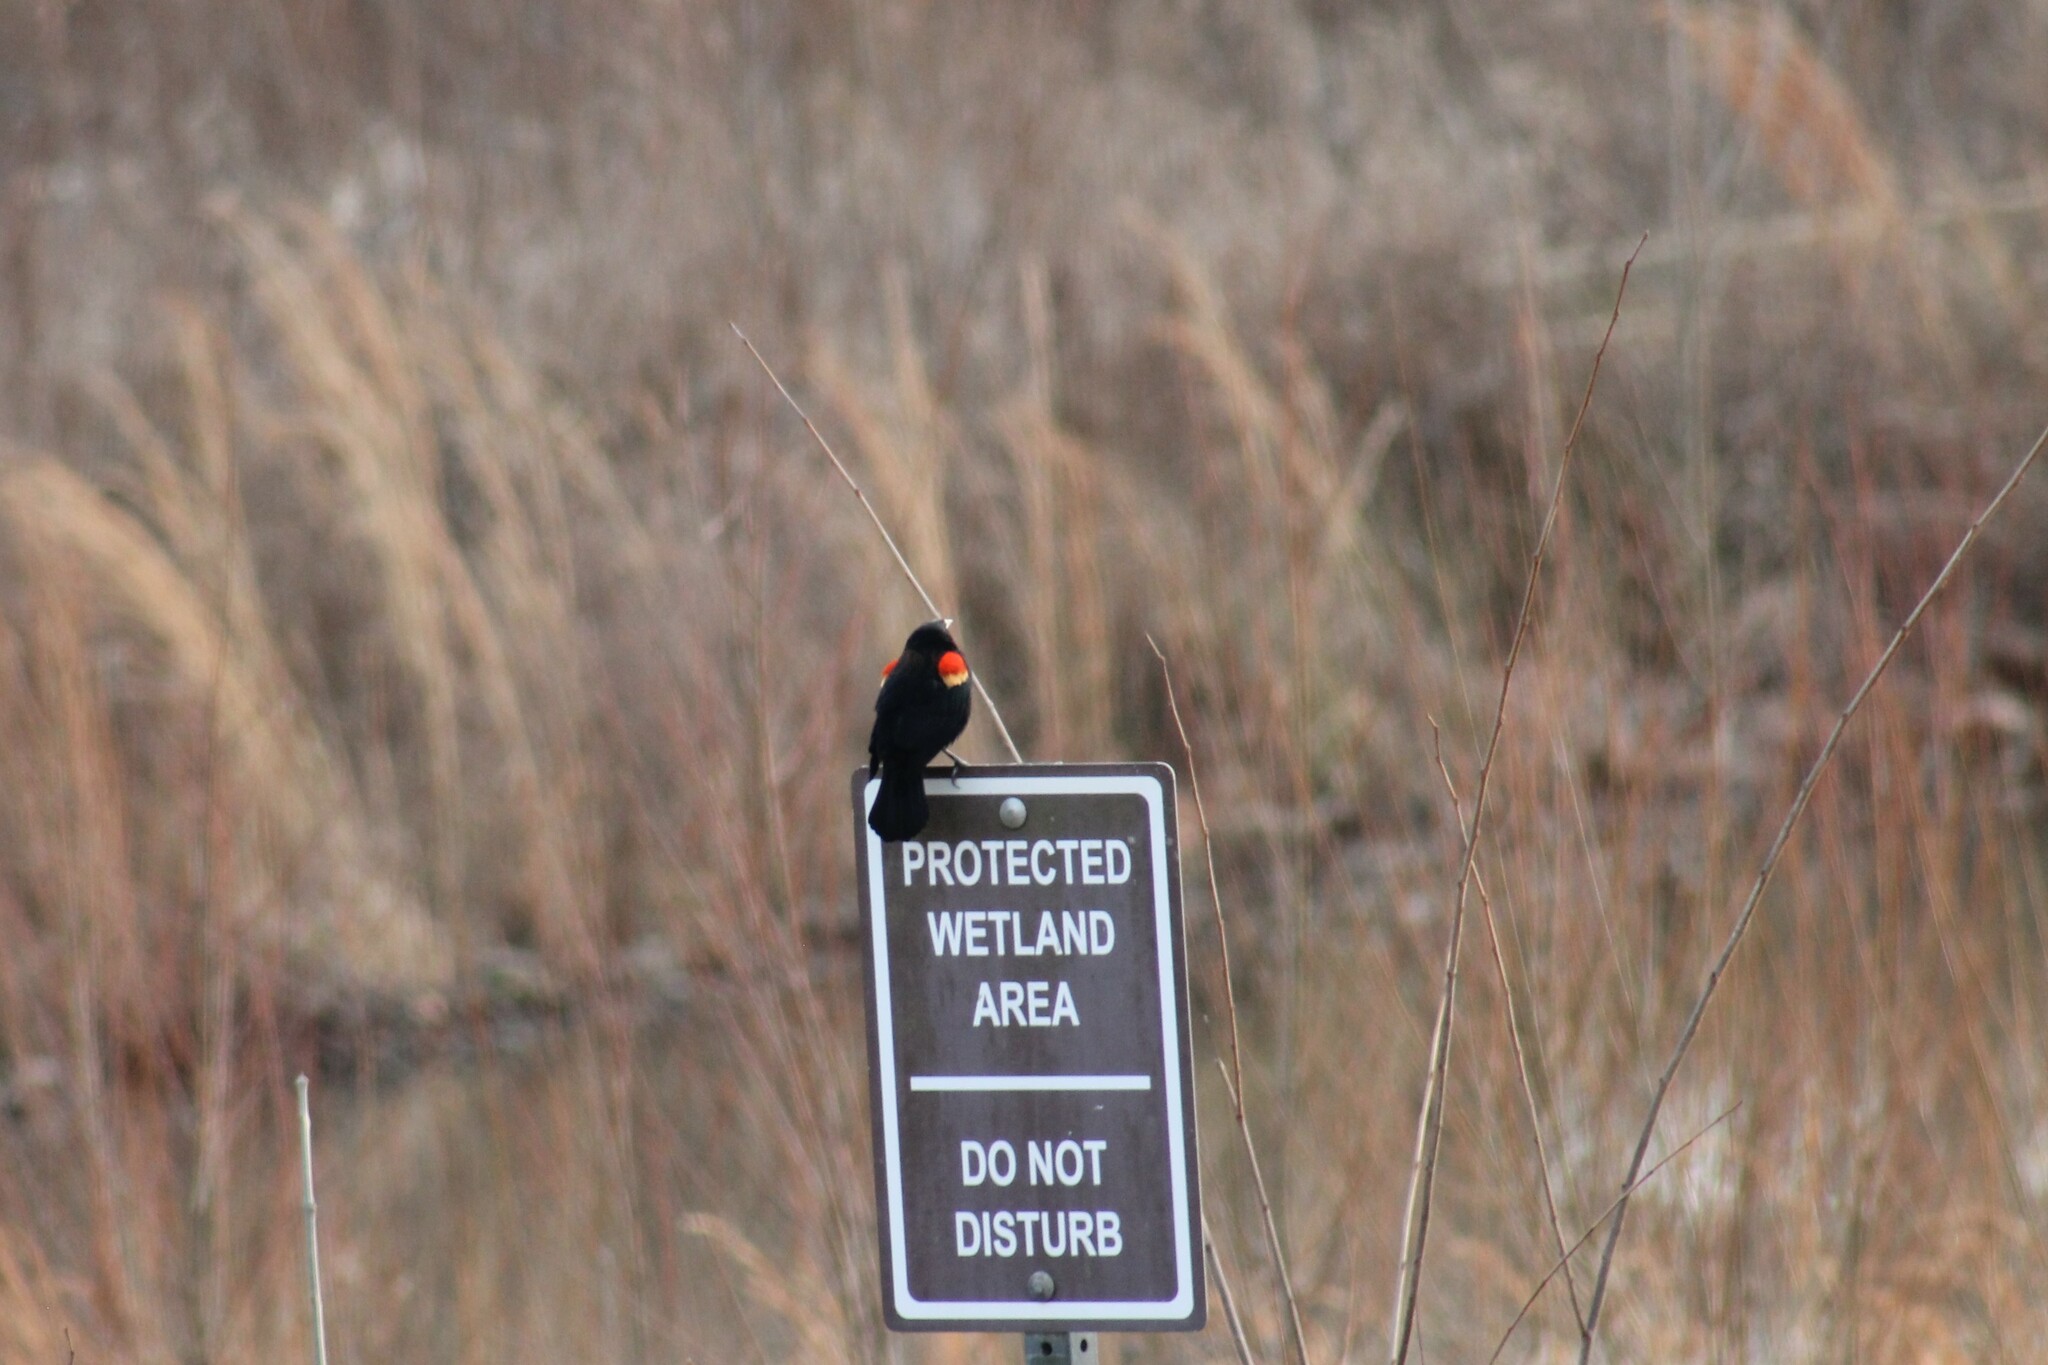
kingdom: Animalia
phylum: Chordata
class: Aves
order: Passeriformes
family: Icteridae
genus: Agelaius
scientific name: Agelaius phoeniceus
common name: Red-winged blackbird
